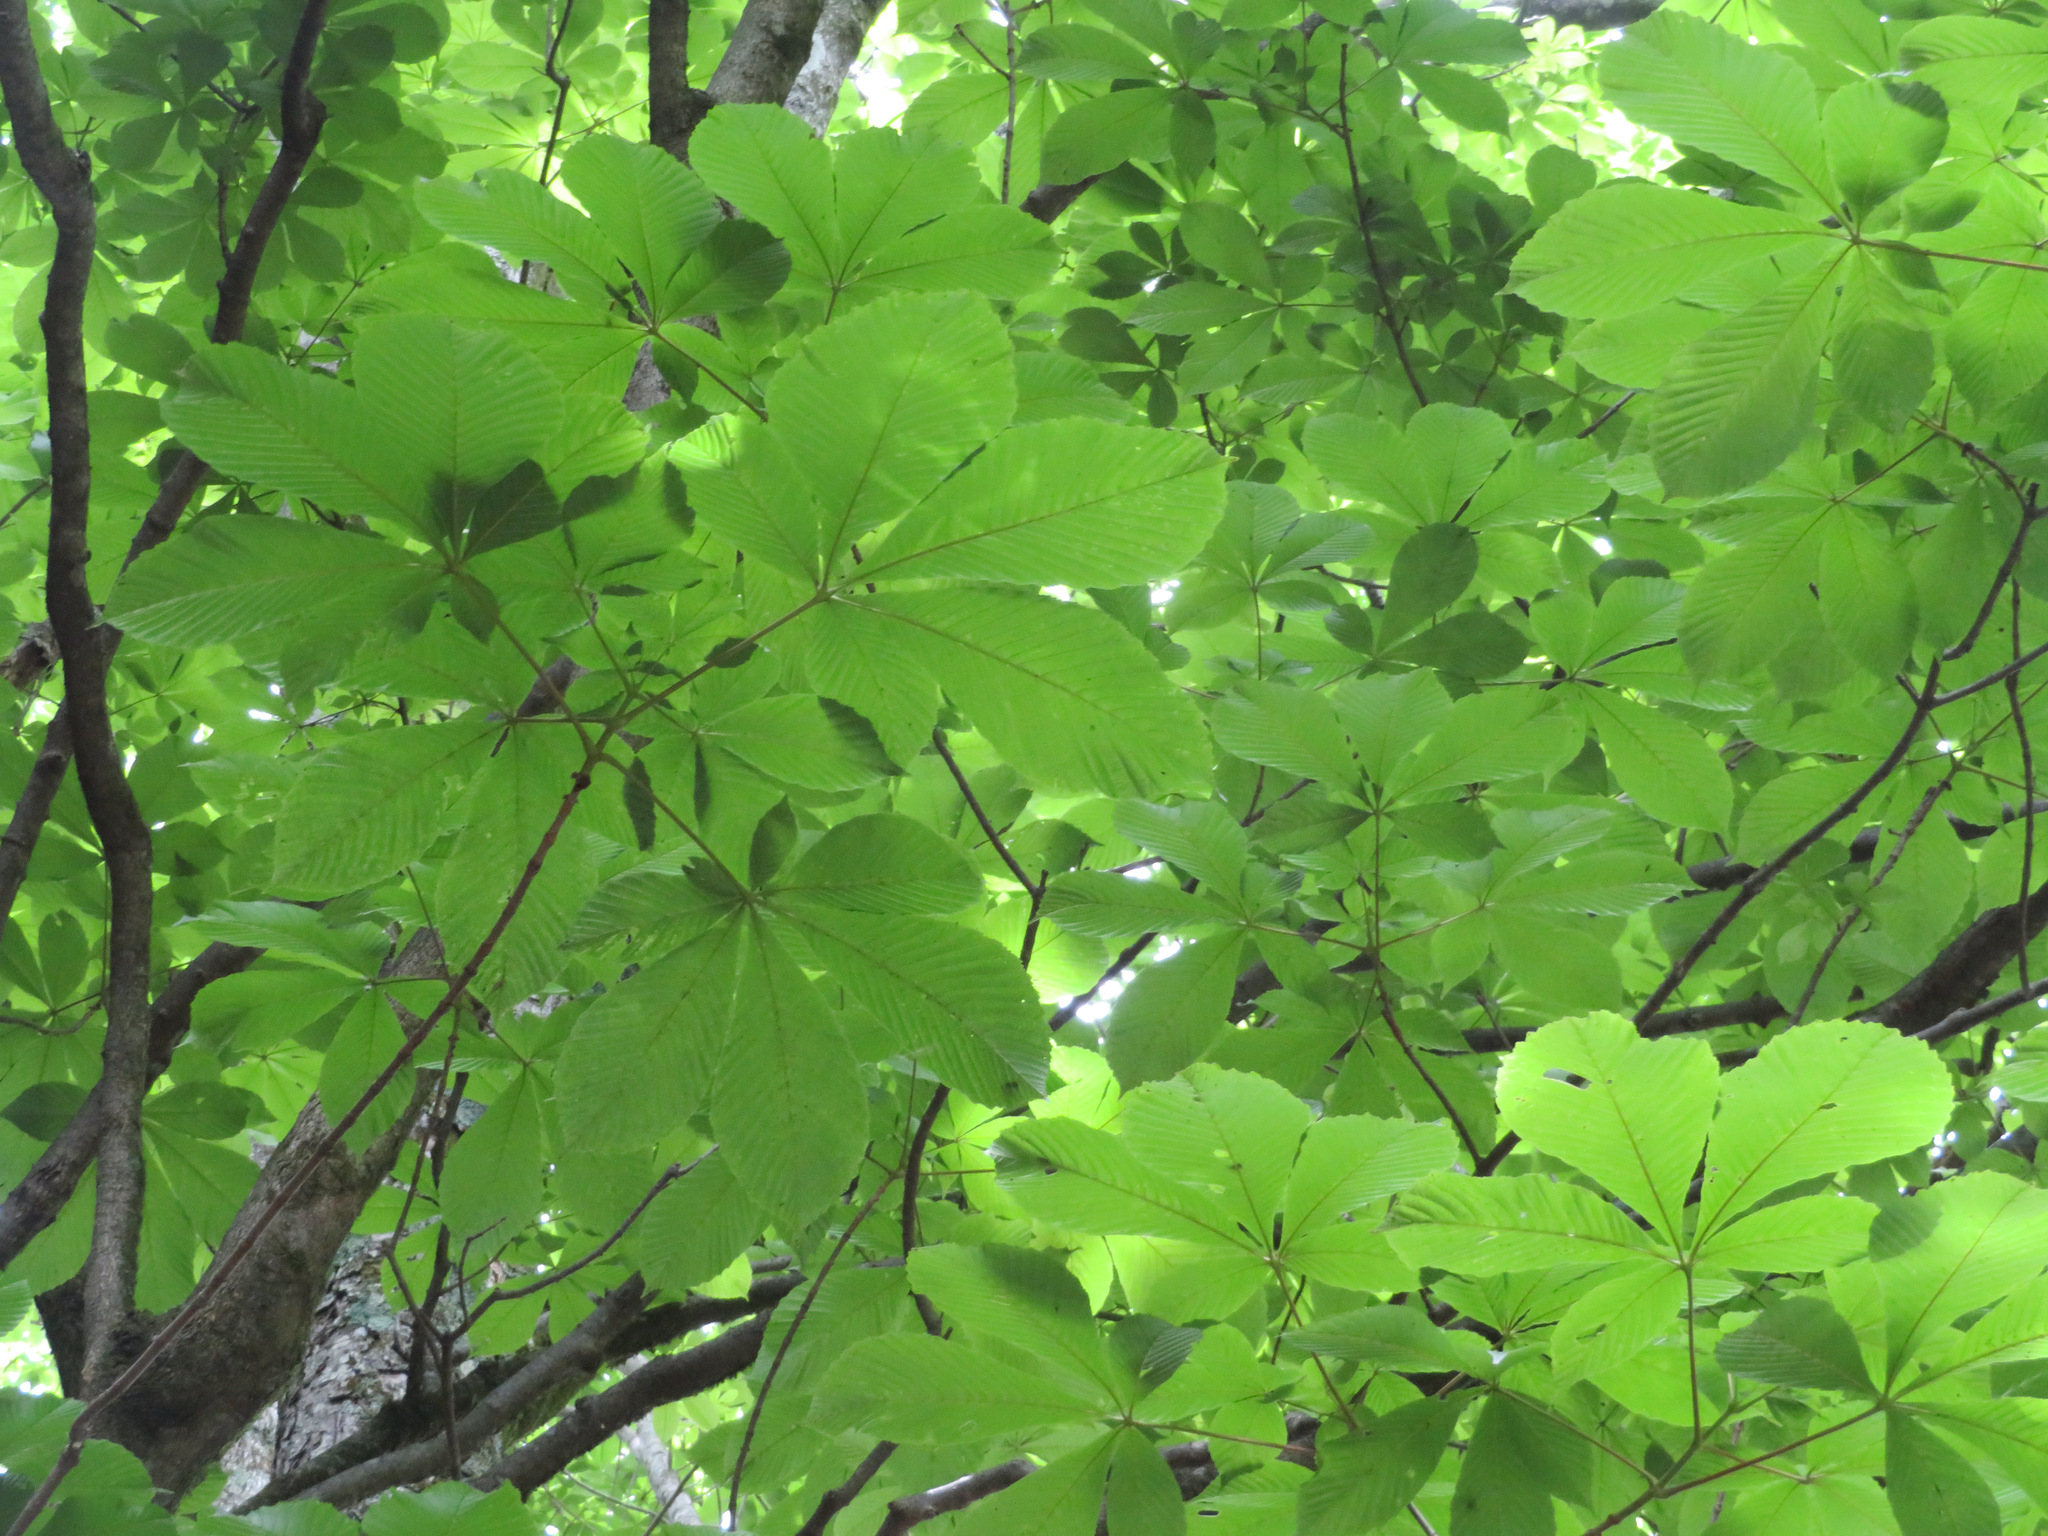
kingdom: Plantae
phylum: Tracheophyta
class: Magnoliopsida
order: Sapindales
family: Sapindaceae
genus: Aesculus
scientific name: Aesculus turbinata
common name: Japanese horse-chestnut
